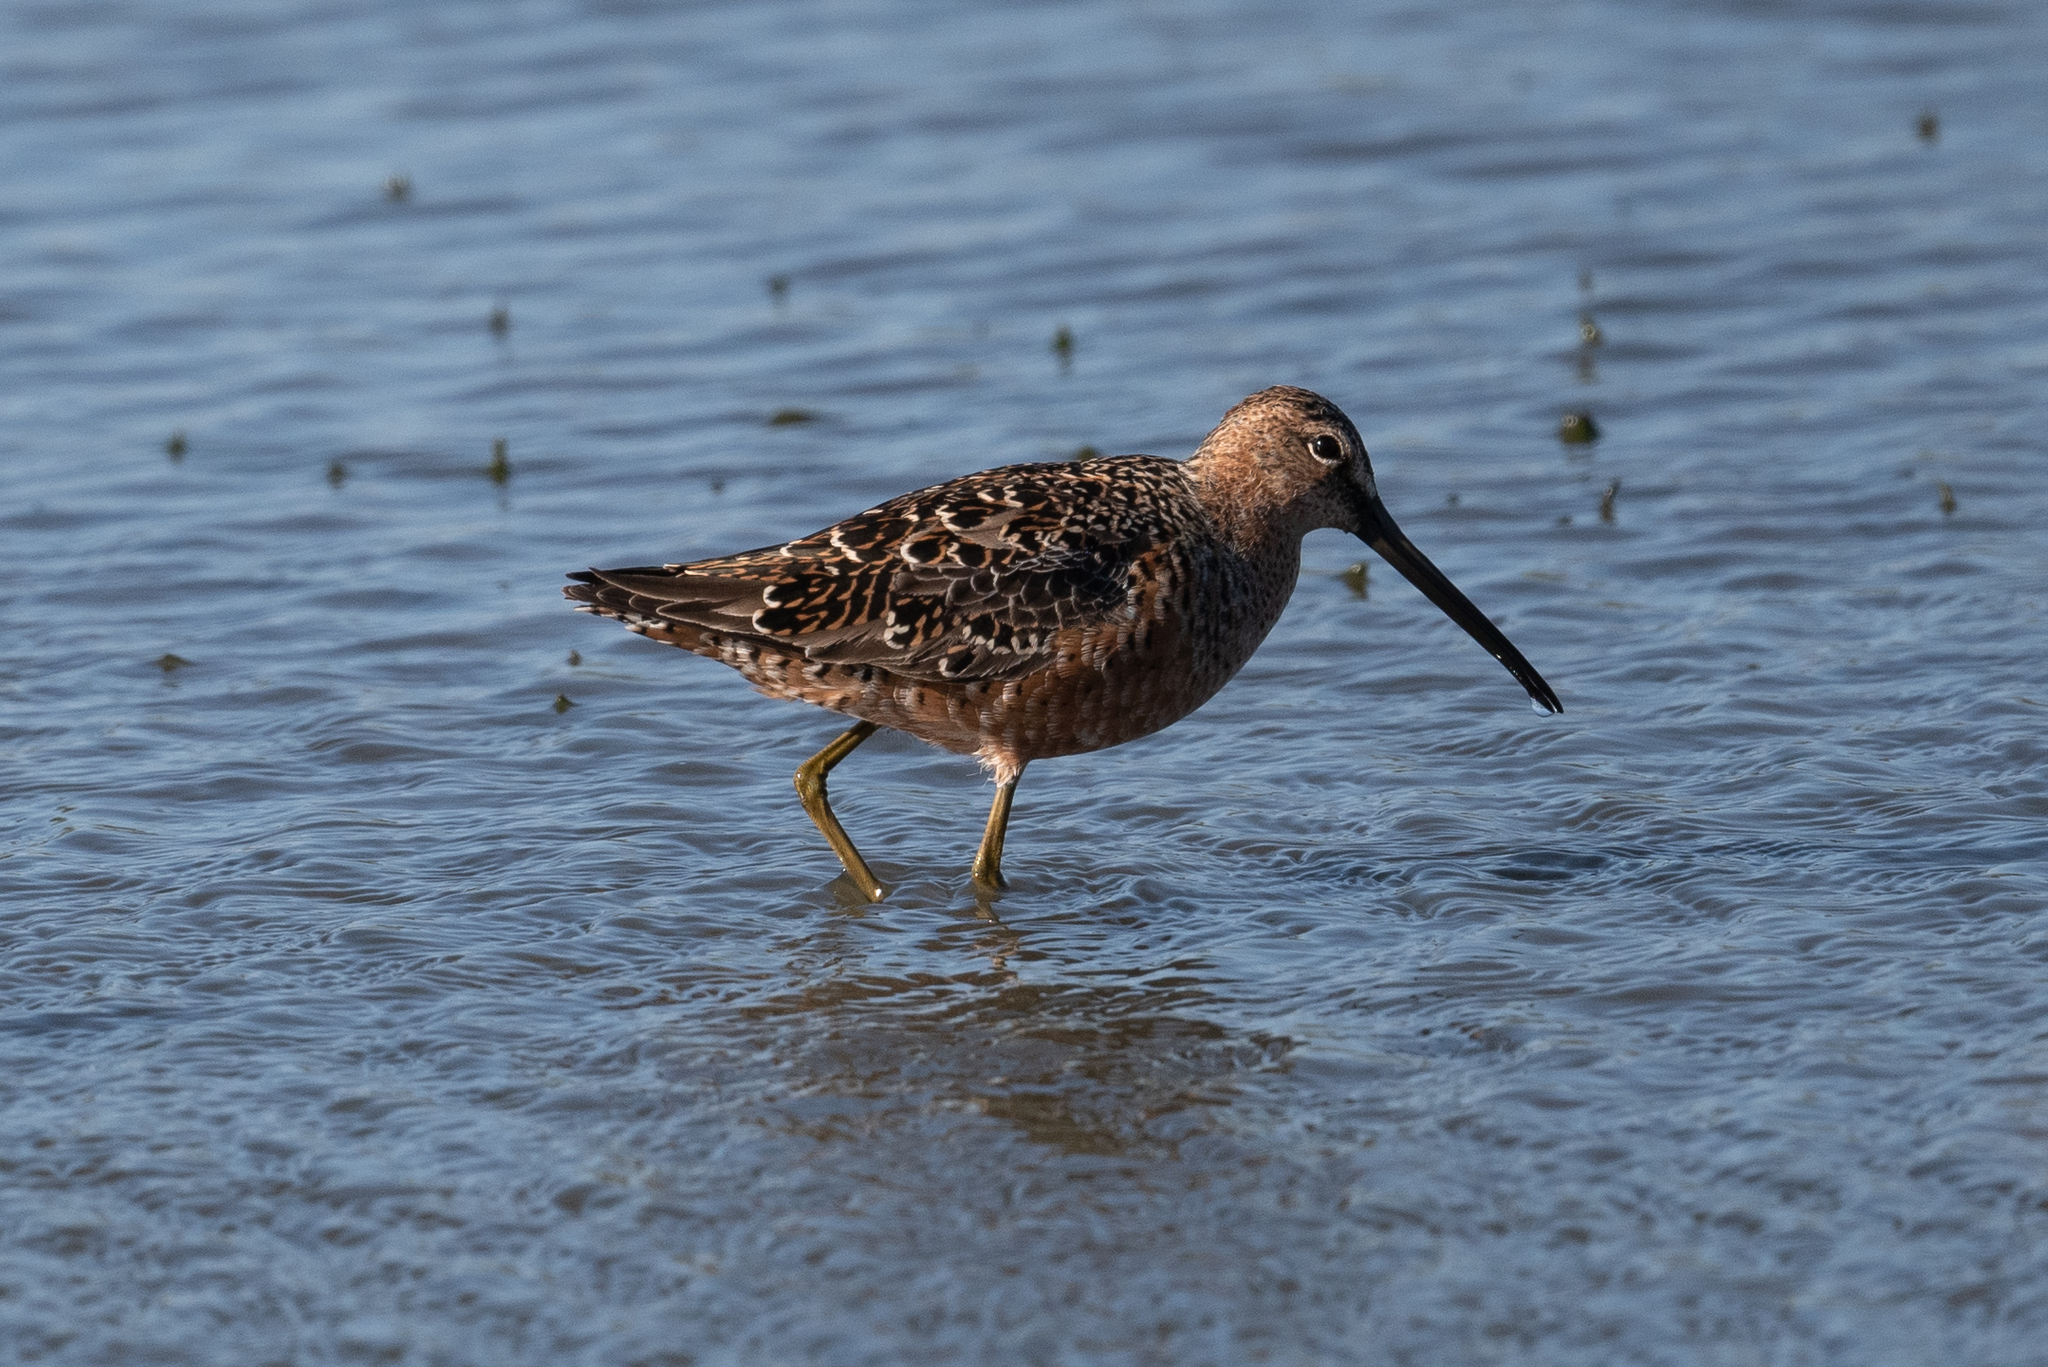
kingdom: Animalia
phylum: Chordata
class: Aves
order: Charadriiformes
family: Scolopacidae
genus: Limnodromus
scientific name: Limnodromus scolopaceus
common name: Long-billed dowitcher
